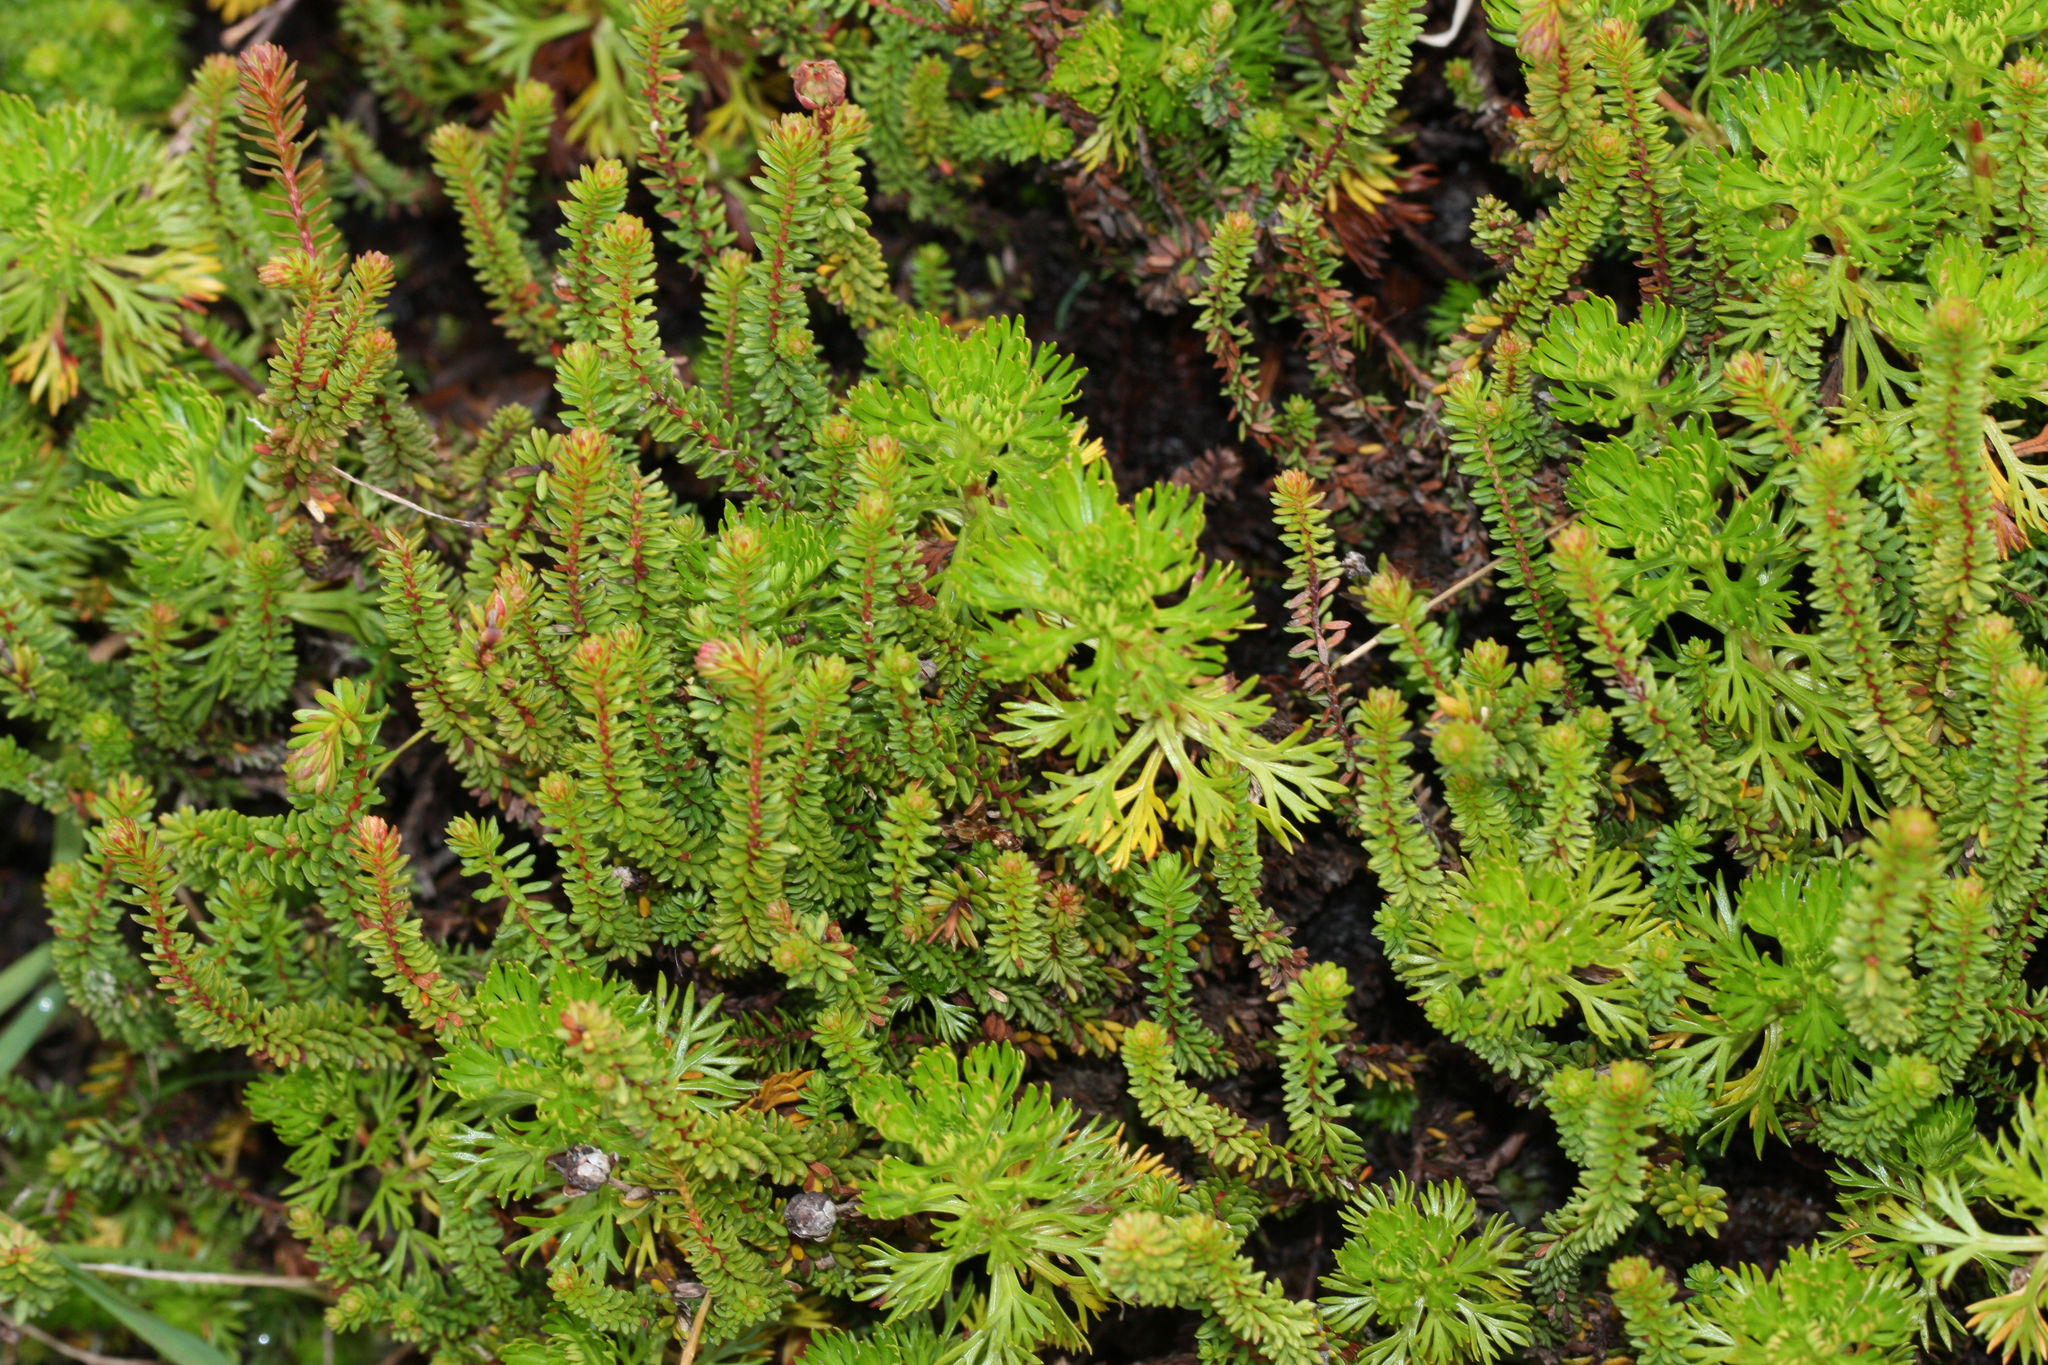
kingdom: Plantae
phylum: Tracheophyta
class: Magnoliopsida
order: Ericales
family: Ericaceae
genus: Harrimanella
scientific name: Harrimanella stelleriana
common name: Alaska bell heather
